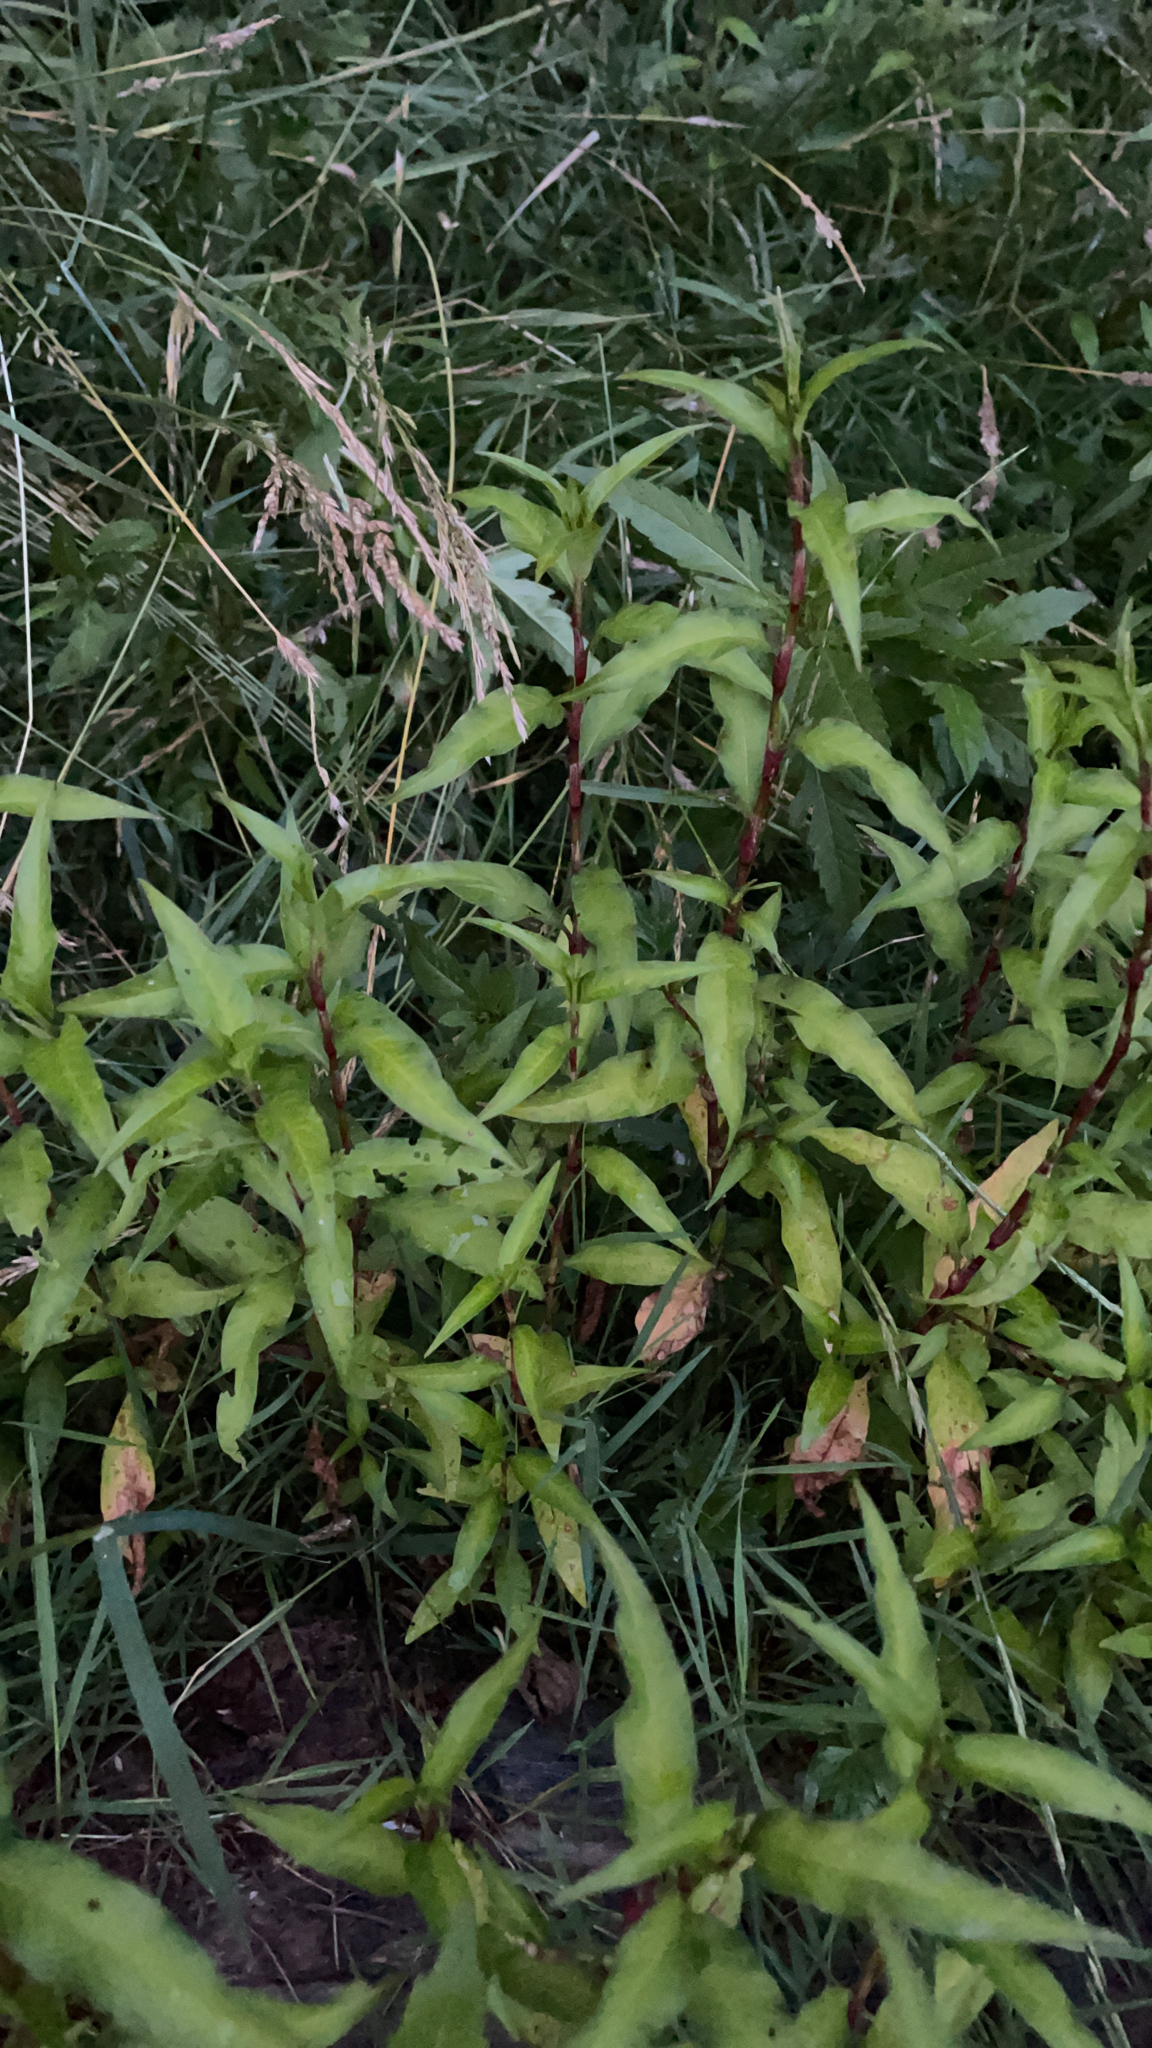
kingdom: Plantae
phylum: Tracheophyta
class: Magnoliopsida
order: Caryophyllales
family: Polygonaceae
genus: Persicaria
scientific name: Persicaria hydropiper
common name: Water-pepper
